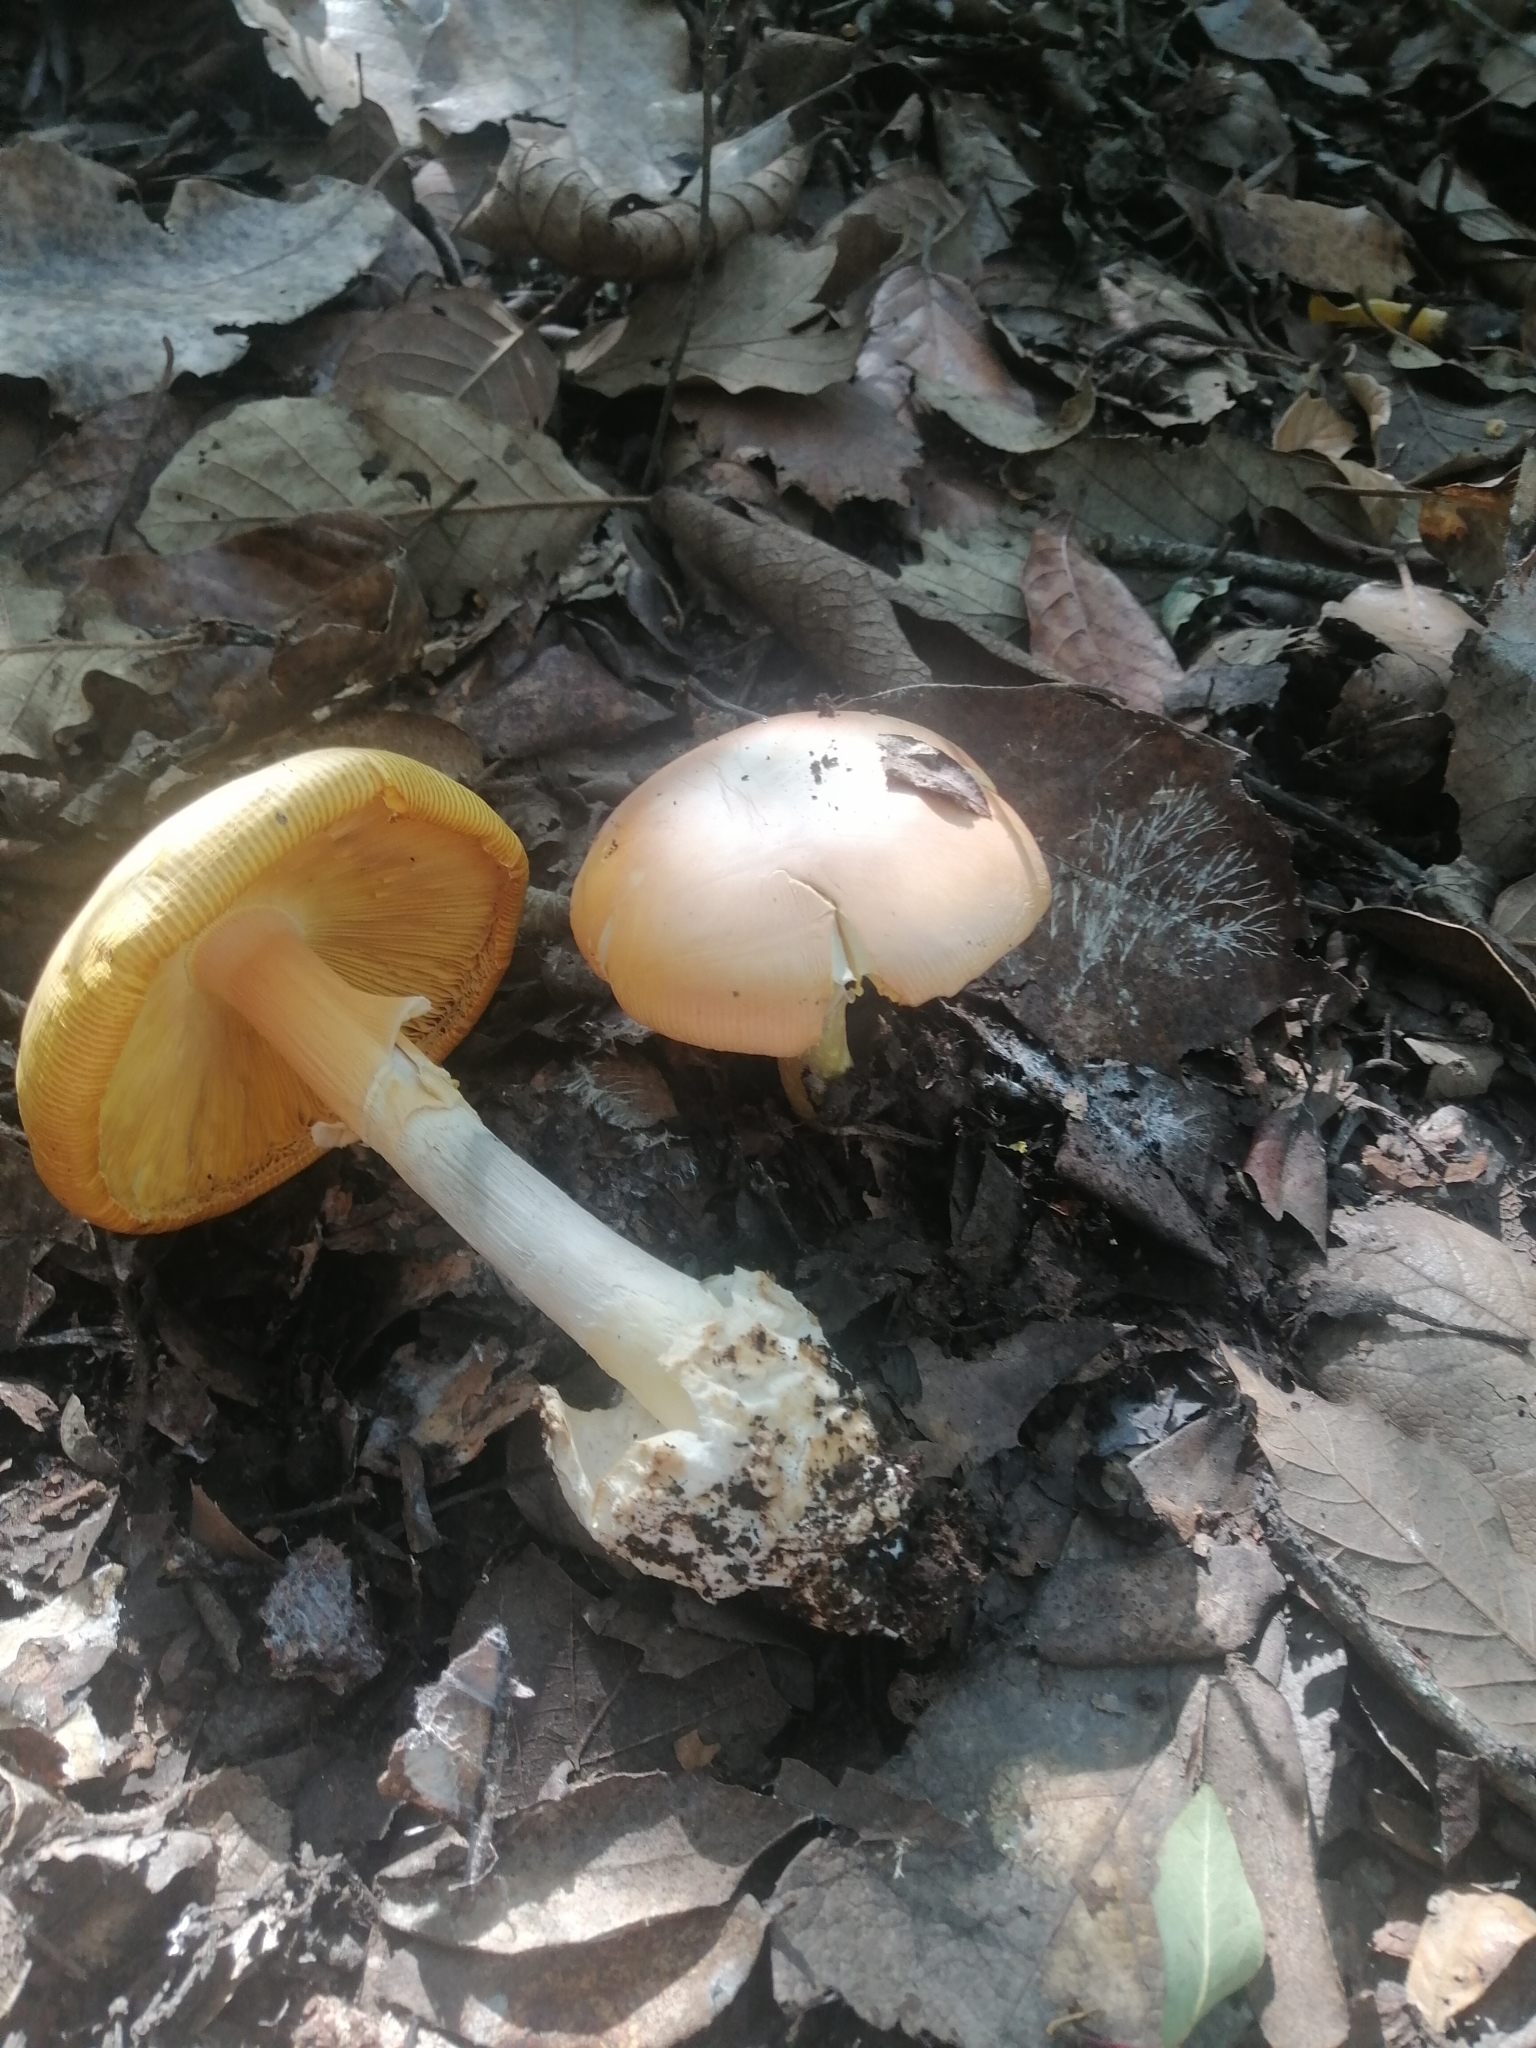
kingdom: Fungi
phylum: Basidiomycota
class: Agaricomycetes
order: Agaricales
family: Amanitaceae
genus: Amanita
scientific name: Amanita basii
